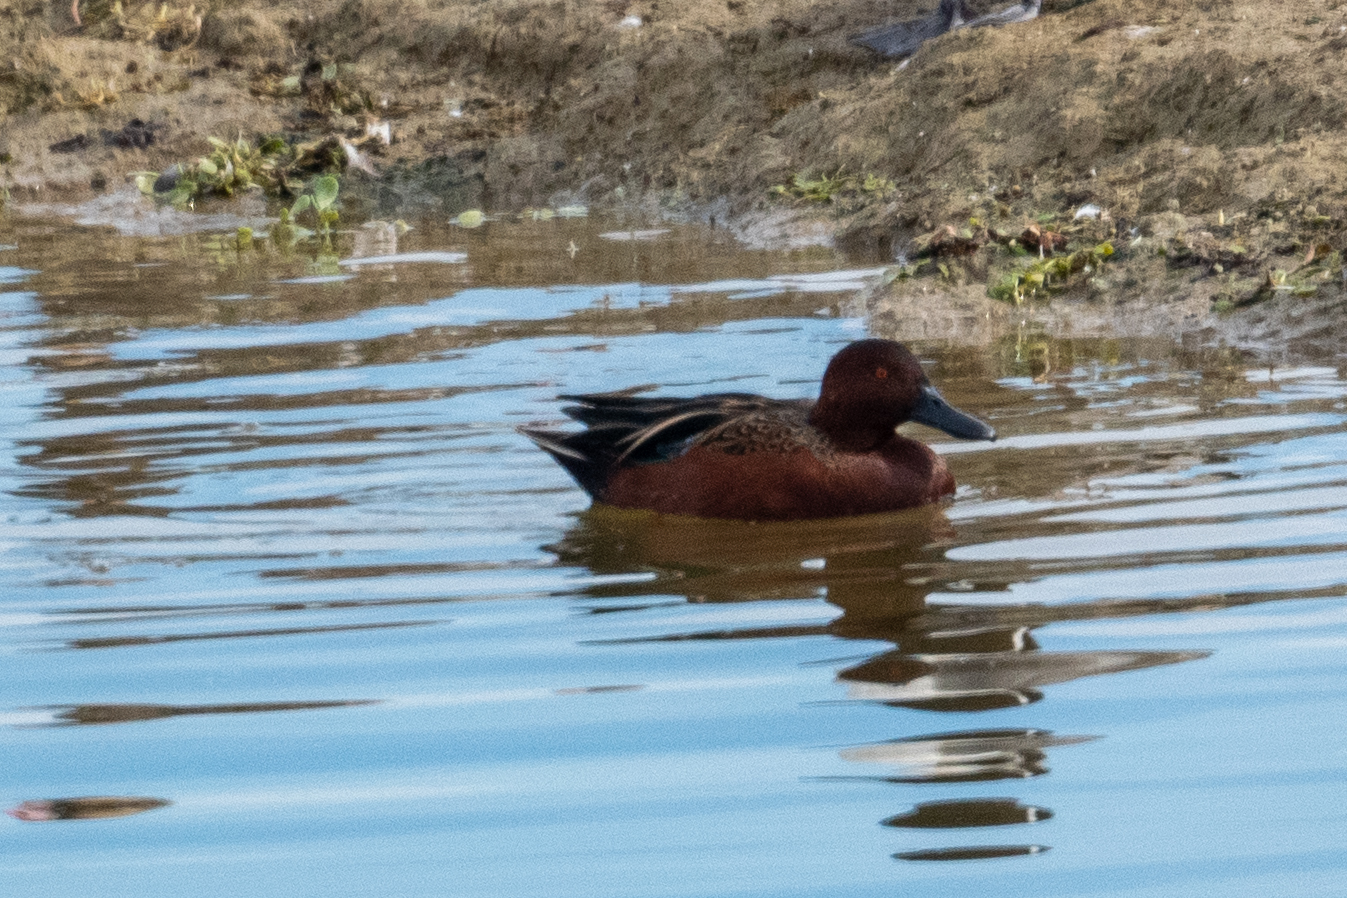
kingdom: Animalia
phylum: Chordata
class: Aves
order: Anseriformes
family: Anatidae
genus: Spatula
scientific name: Spatula cyanoptera
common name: Cinnamon teal
